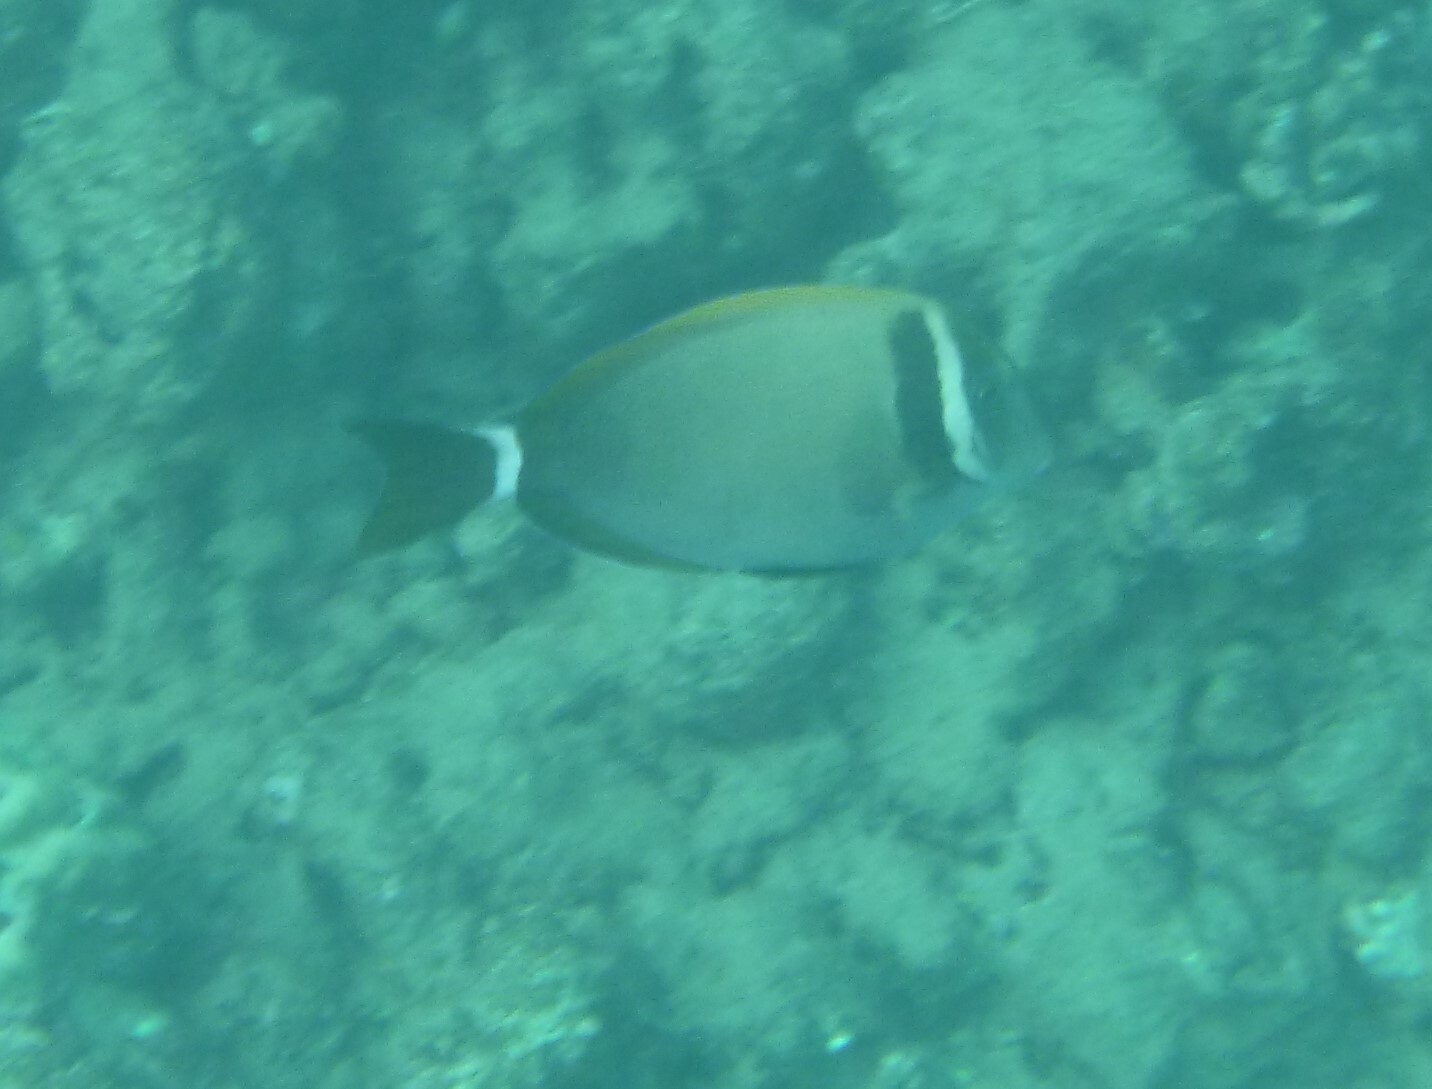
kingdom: Animalia
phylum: Chordata
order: Perciformes
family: Acanthuridae
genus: Acanthurus
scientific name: Acanthurus leucopareius
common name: Head-band surgeonfish
